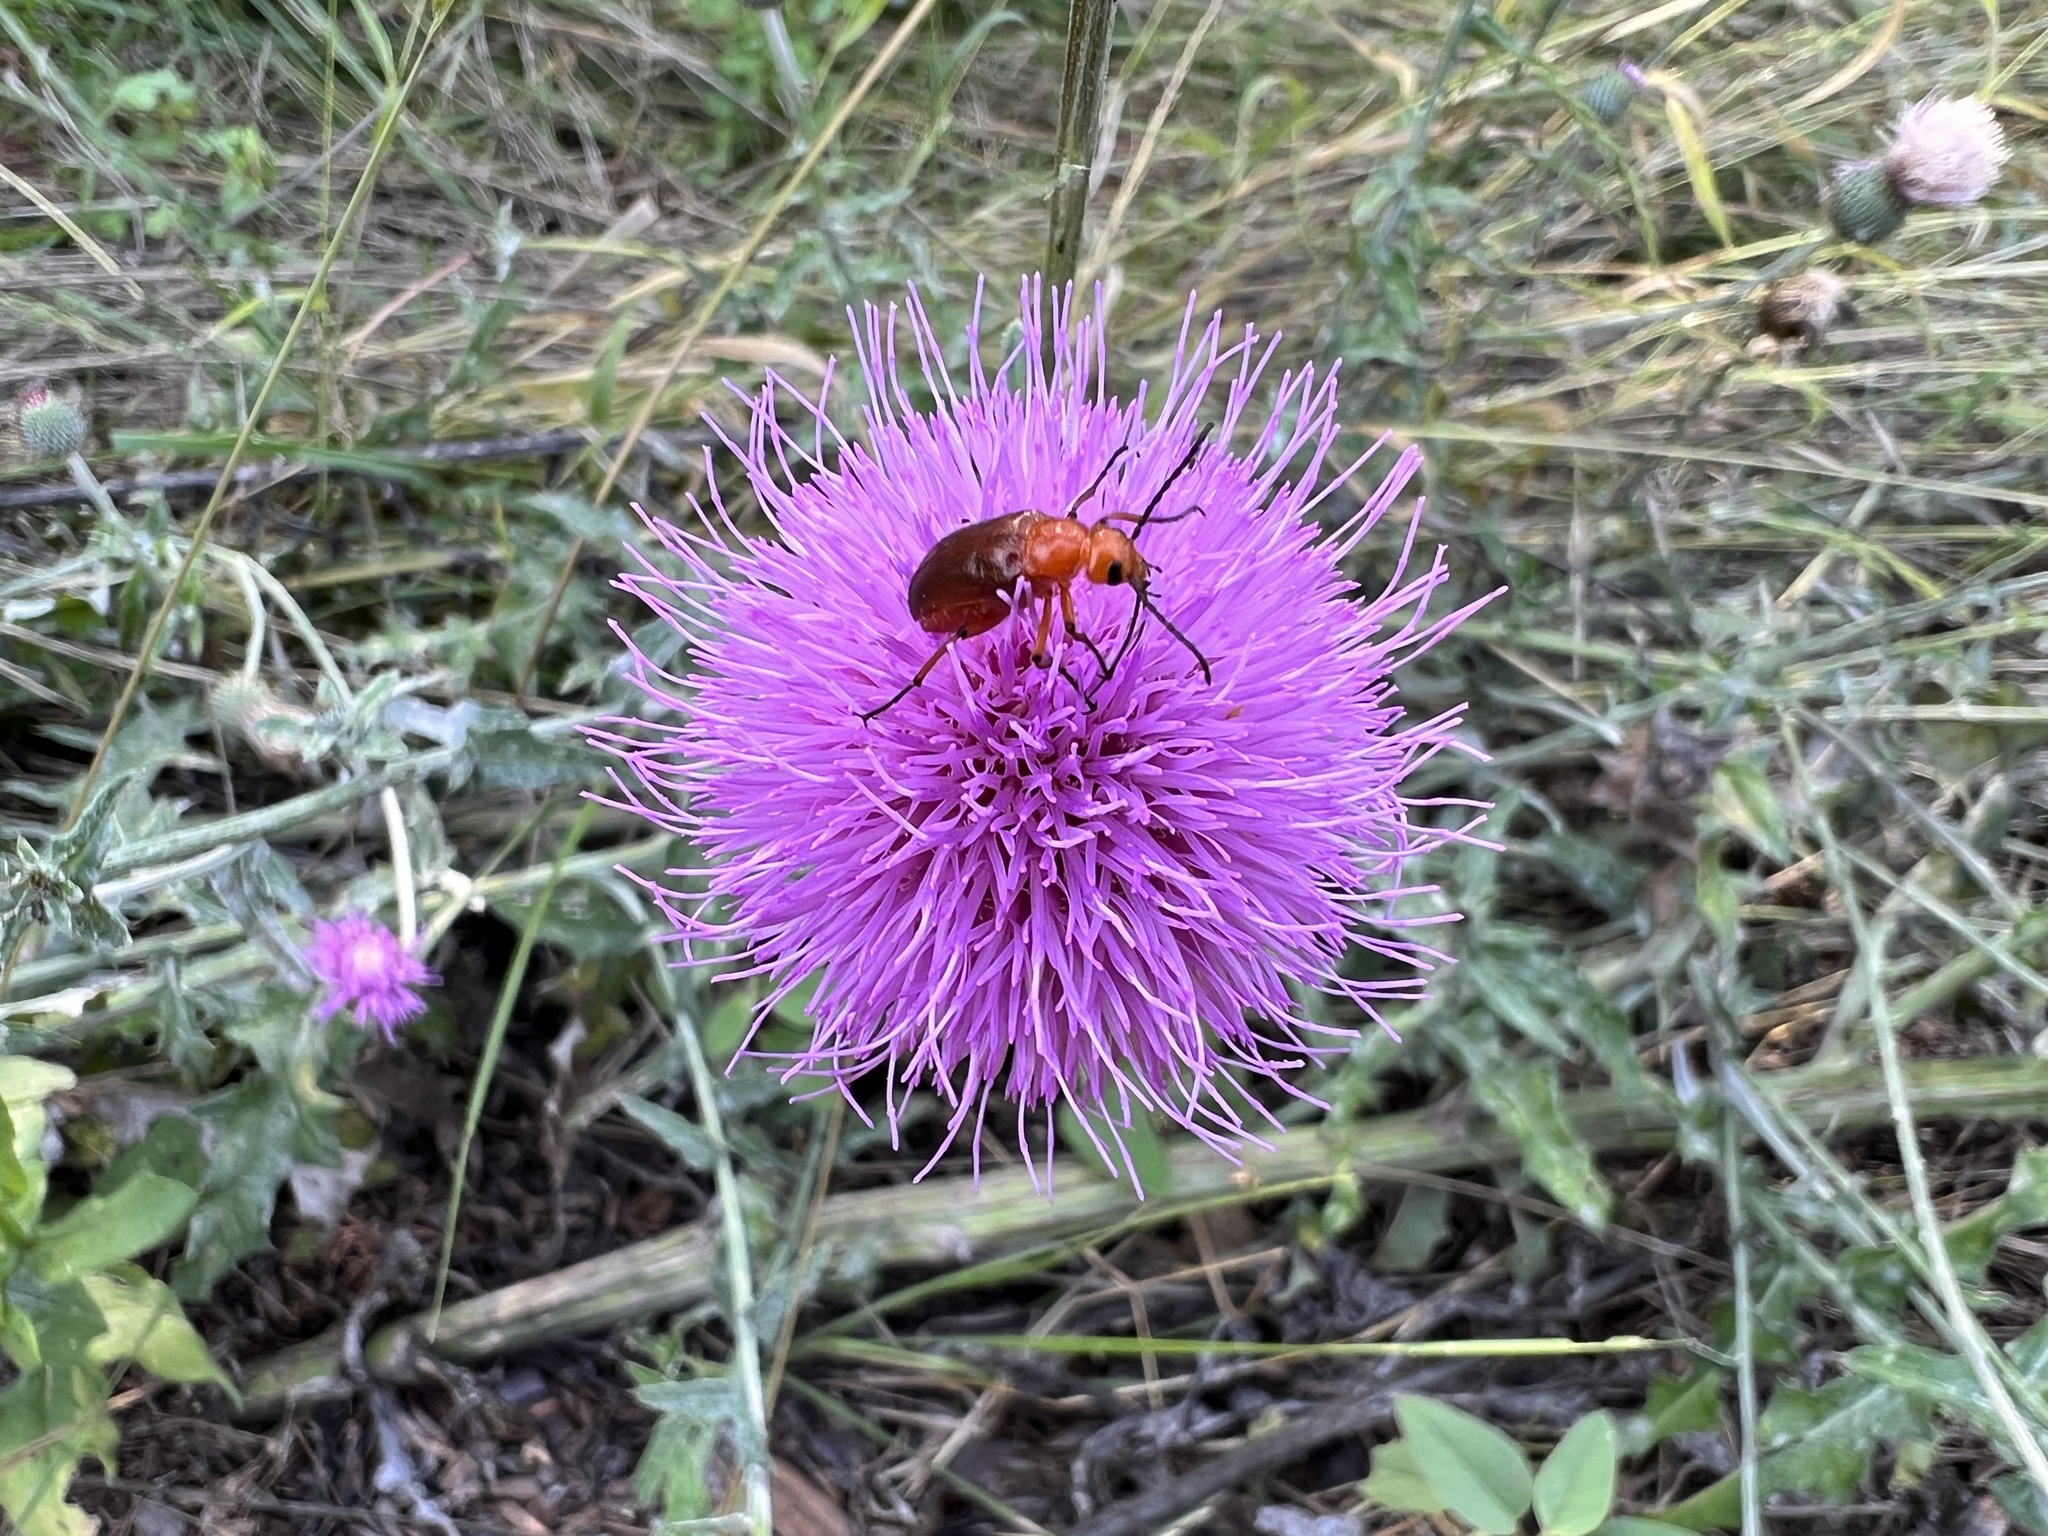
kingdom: Animalia
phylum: Arthropoda
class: Insecta
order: Coleoptera
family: Meloidae
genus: Nemognatha
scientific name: Nemognatha piazata
